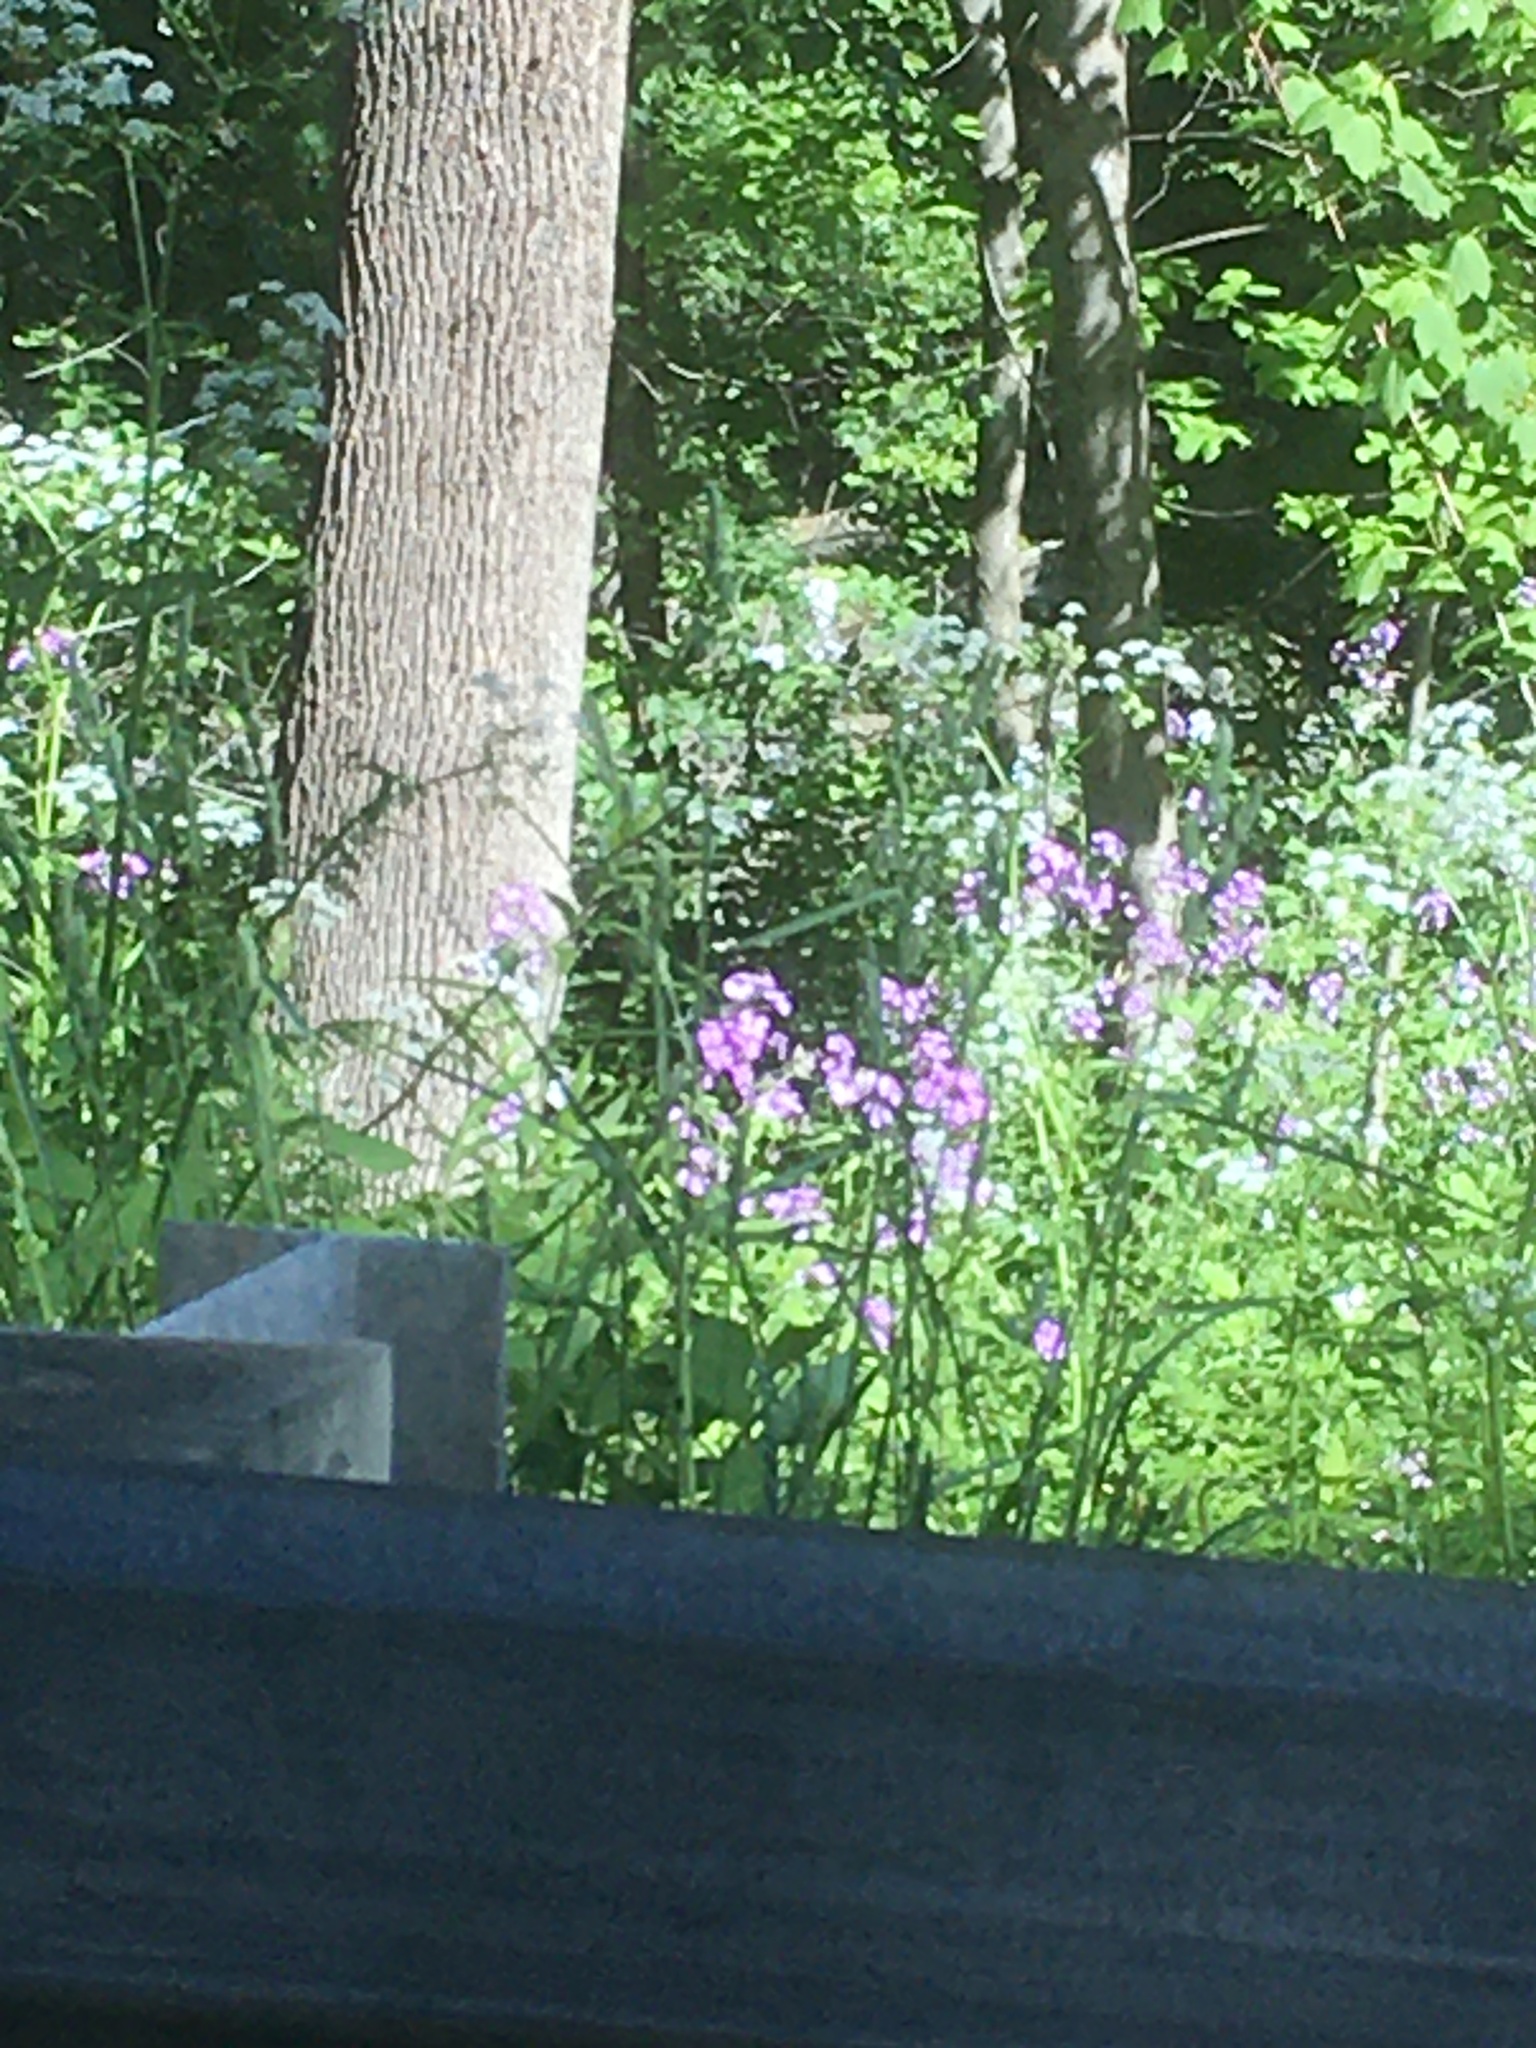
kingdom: Plantae
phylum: Tracheophyta
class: Magnoliopsida
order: Brassicales
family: Brassicaceae
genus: Hesperis
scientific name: Hesperis matronalis
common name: Dame's-violet
